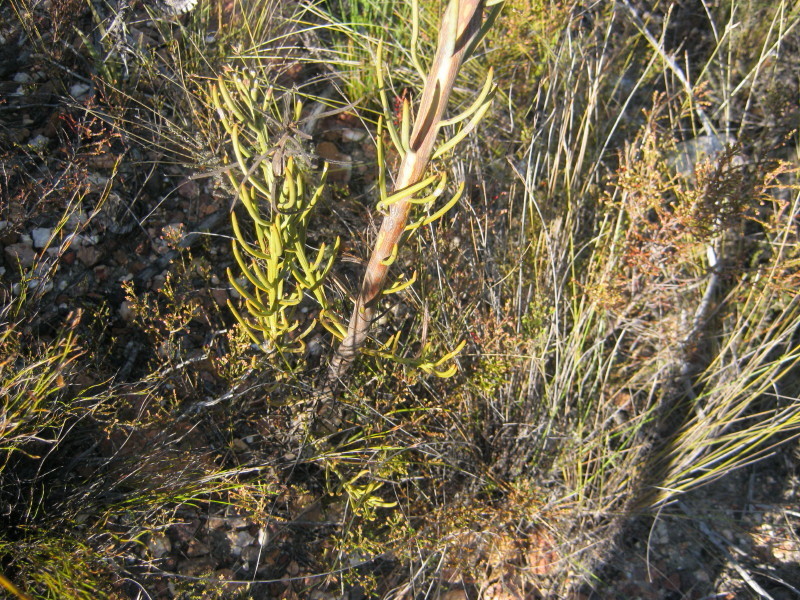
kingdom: Plantae
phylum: Tracheophyta
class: Magnoliopsida
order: Santalales
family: Thesiaceae
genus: Thesium
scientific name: Thesium strictum
